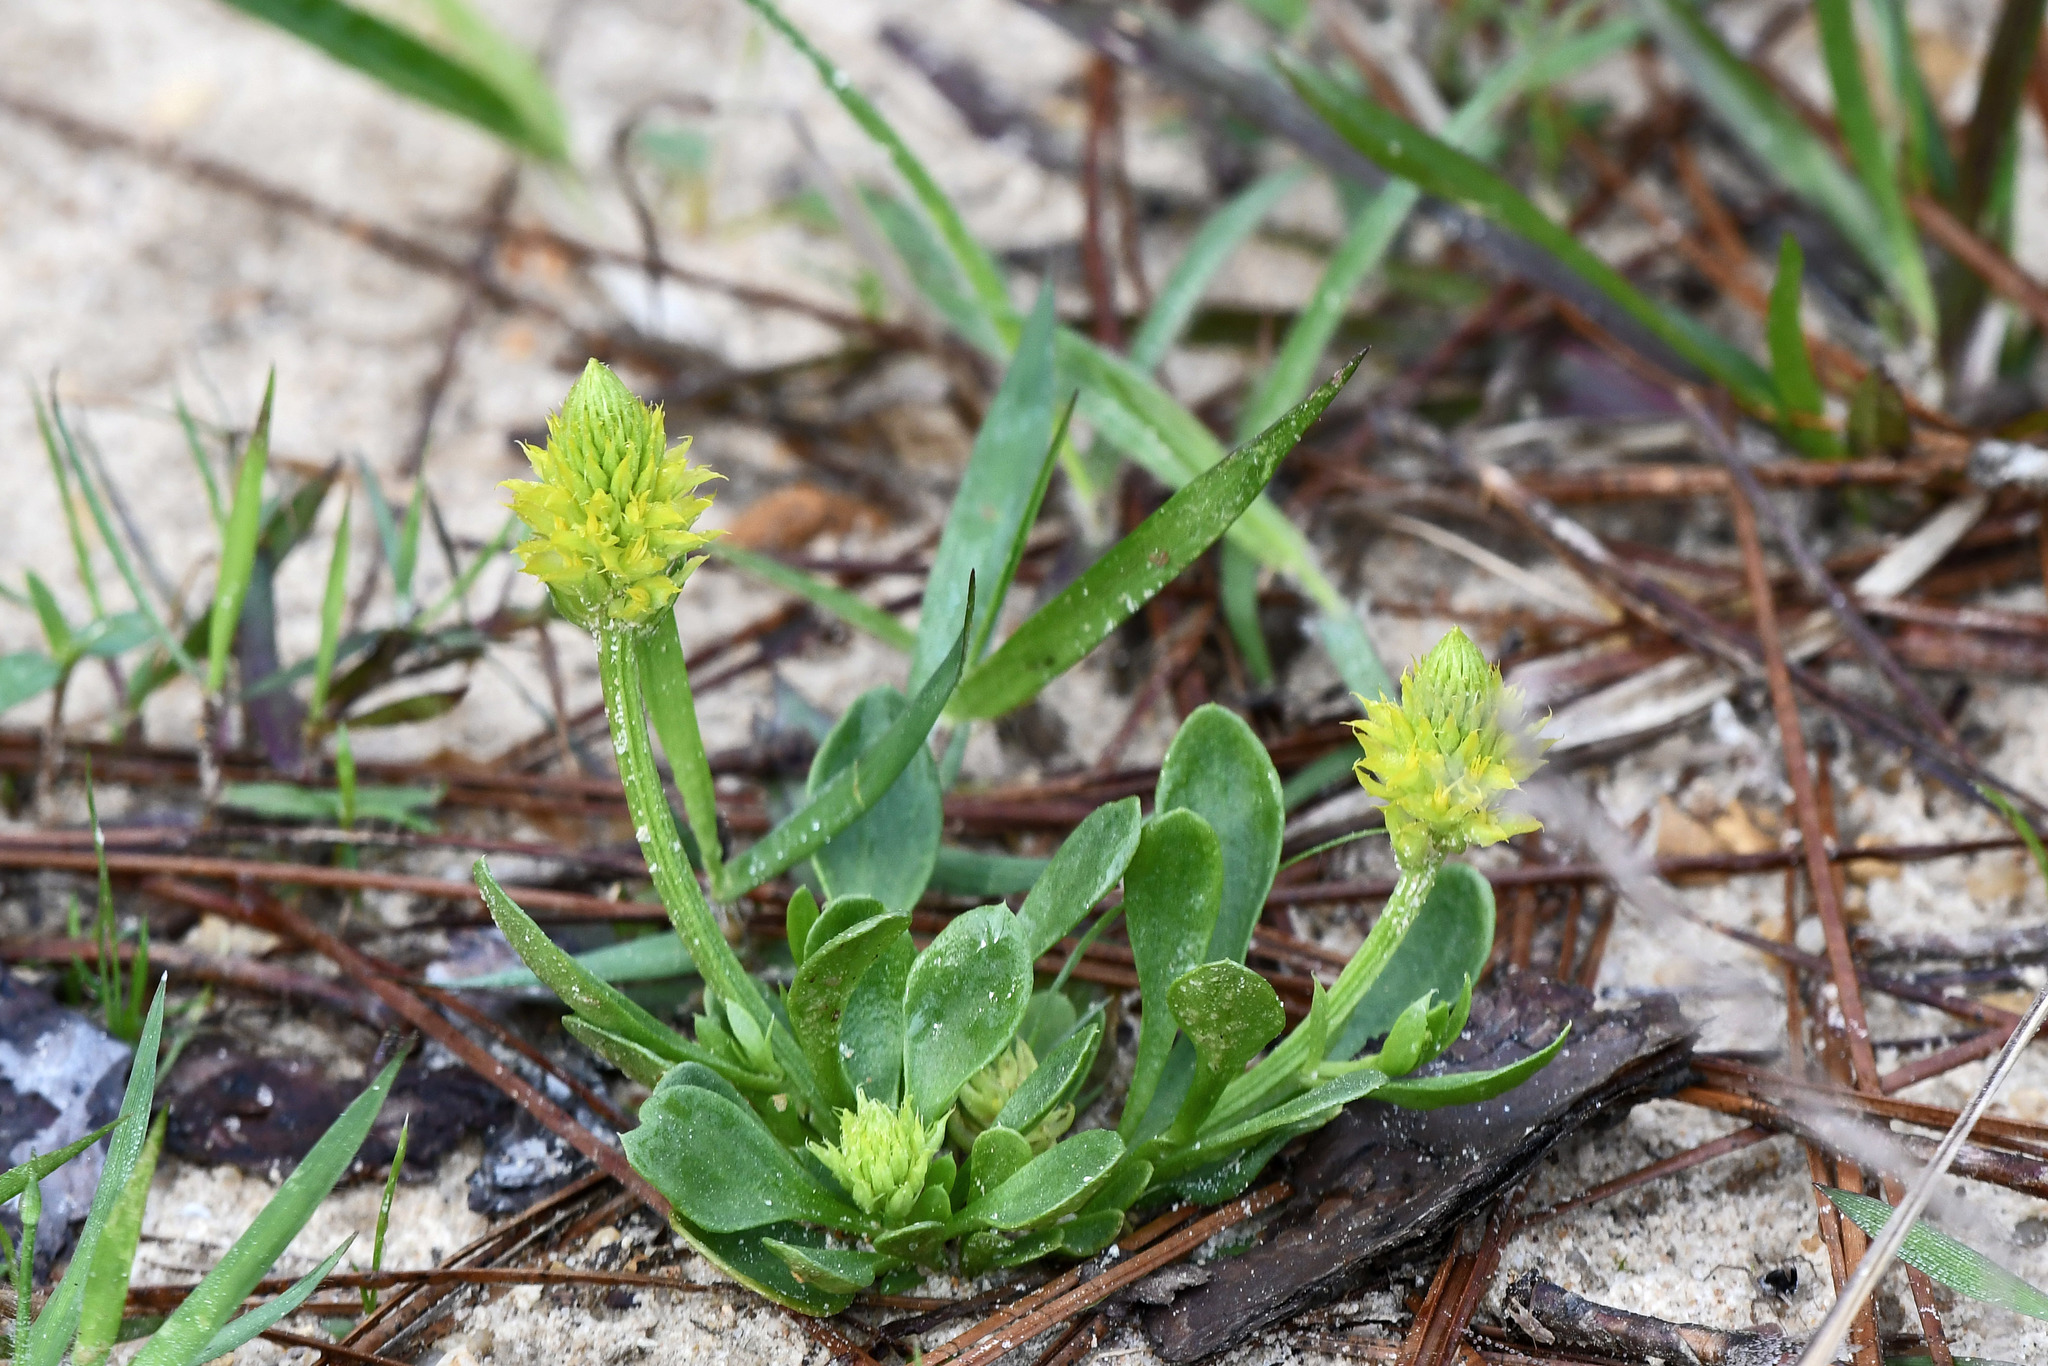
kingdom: Plantae
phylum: Tracheophyta
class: Magnoliopsida
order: Fabales
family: Polygalaceae
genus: Polygala
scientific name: Polygala nana
